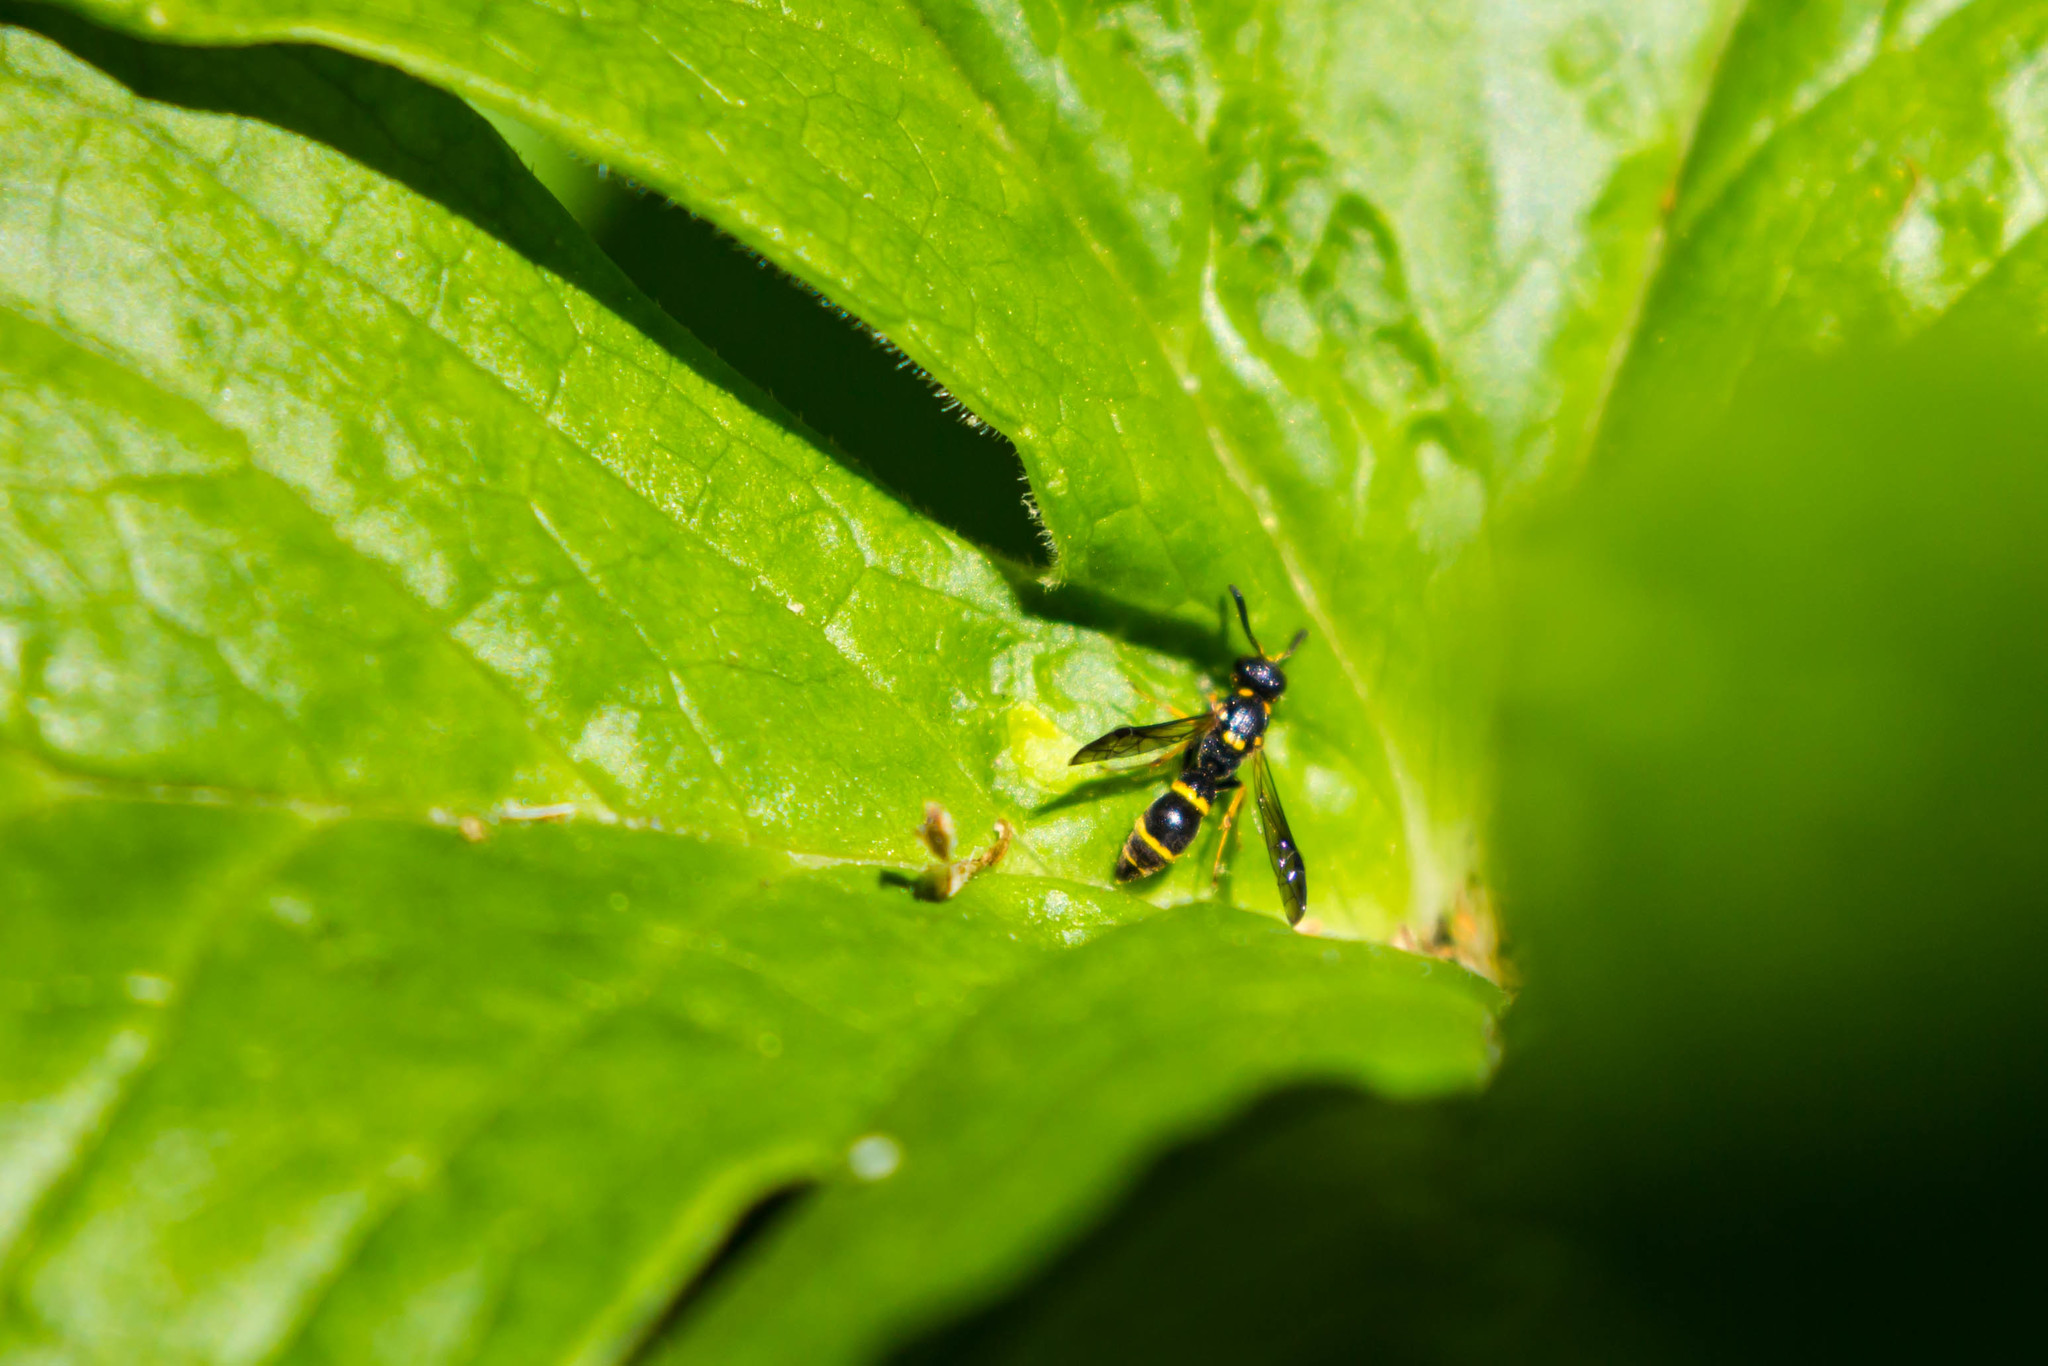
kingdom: Animalia
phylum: Arthropoda
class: Insecta
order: Hymenoptera
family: Eumenidae
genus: Symmorphus
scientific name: Symmorphus
